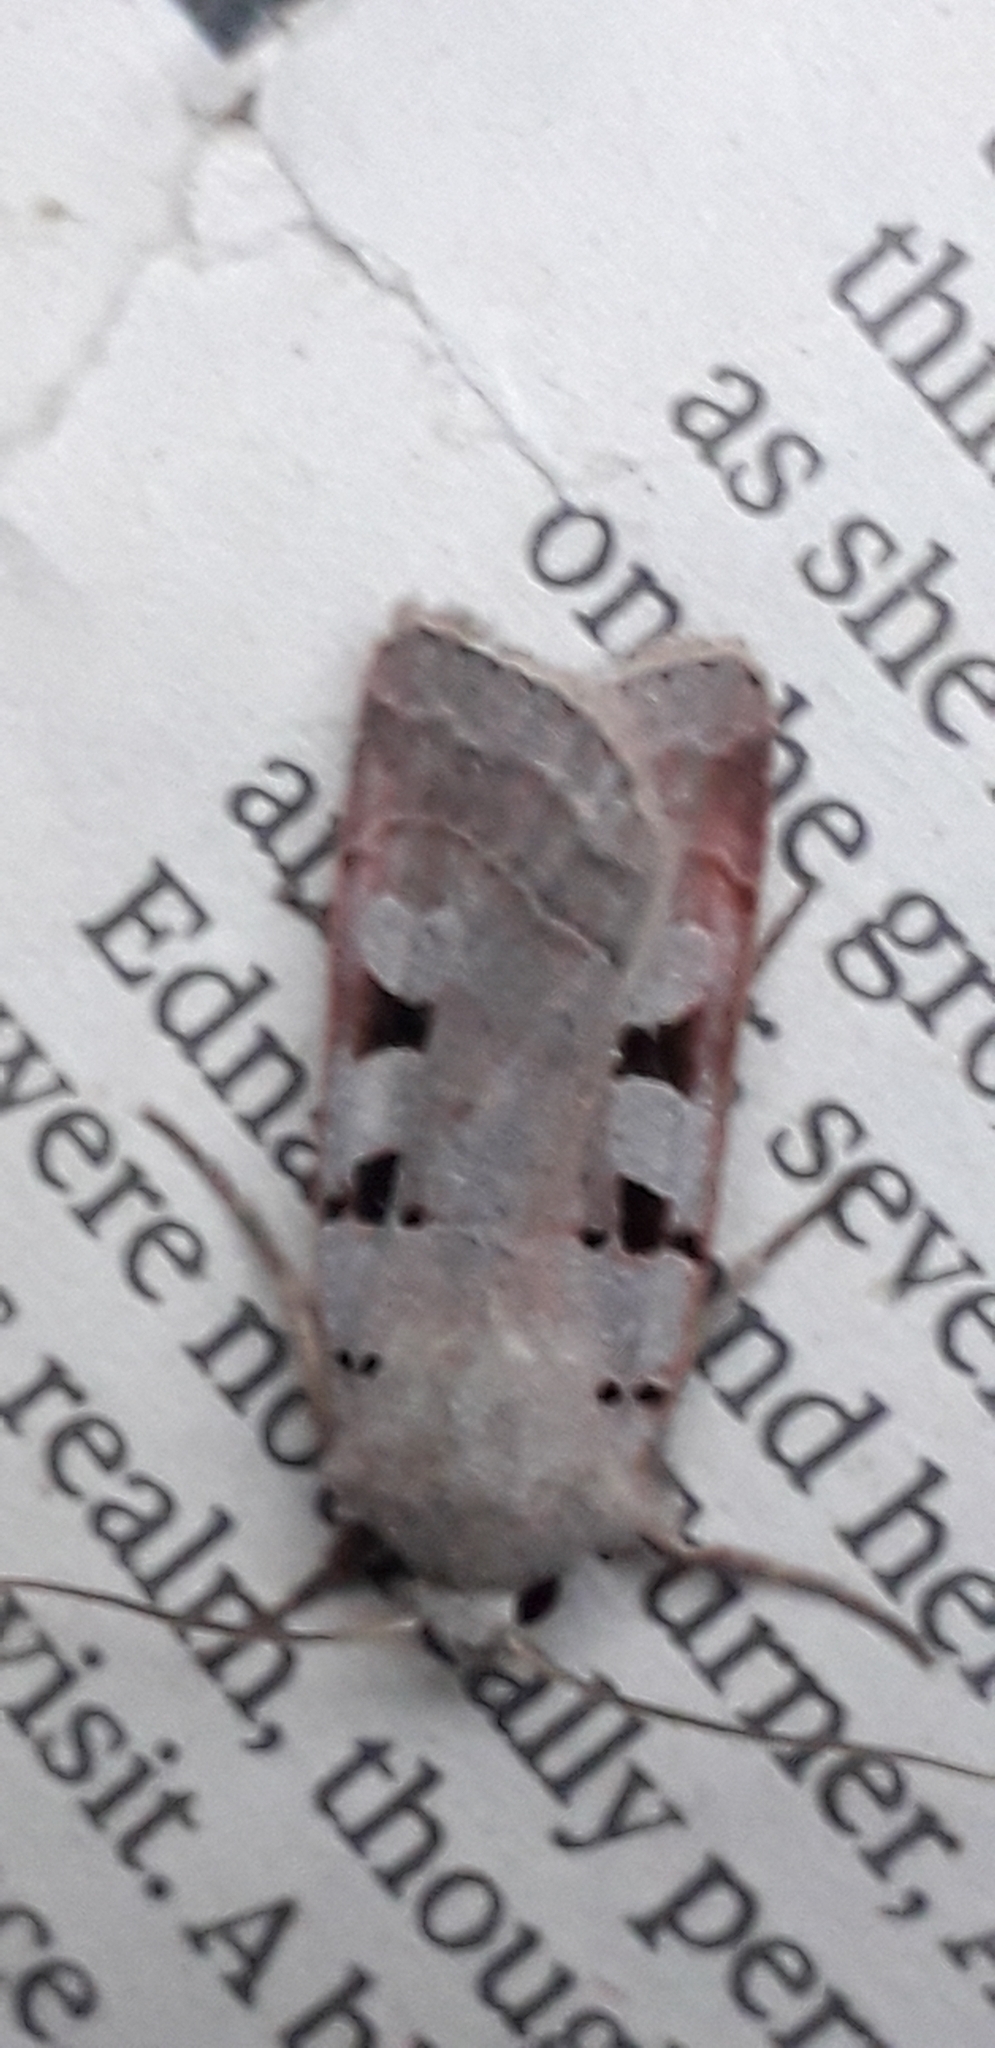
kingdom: Animalia
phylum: Arthropoda
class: Insecta
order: Lepidoptera
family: Noctuidae
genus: Eugnorisma
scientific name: Eugnorisma glareosa
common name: Autumnal rustic
